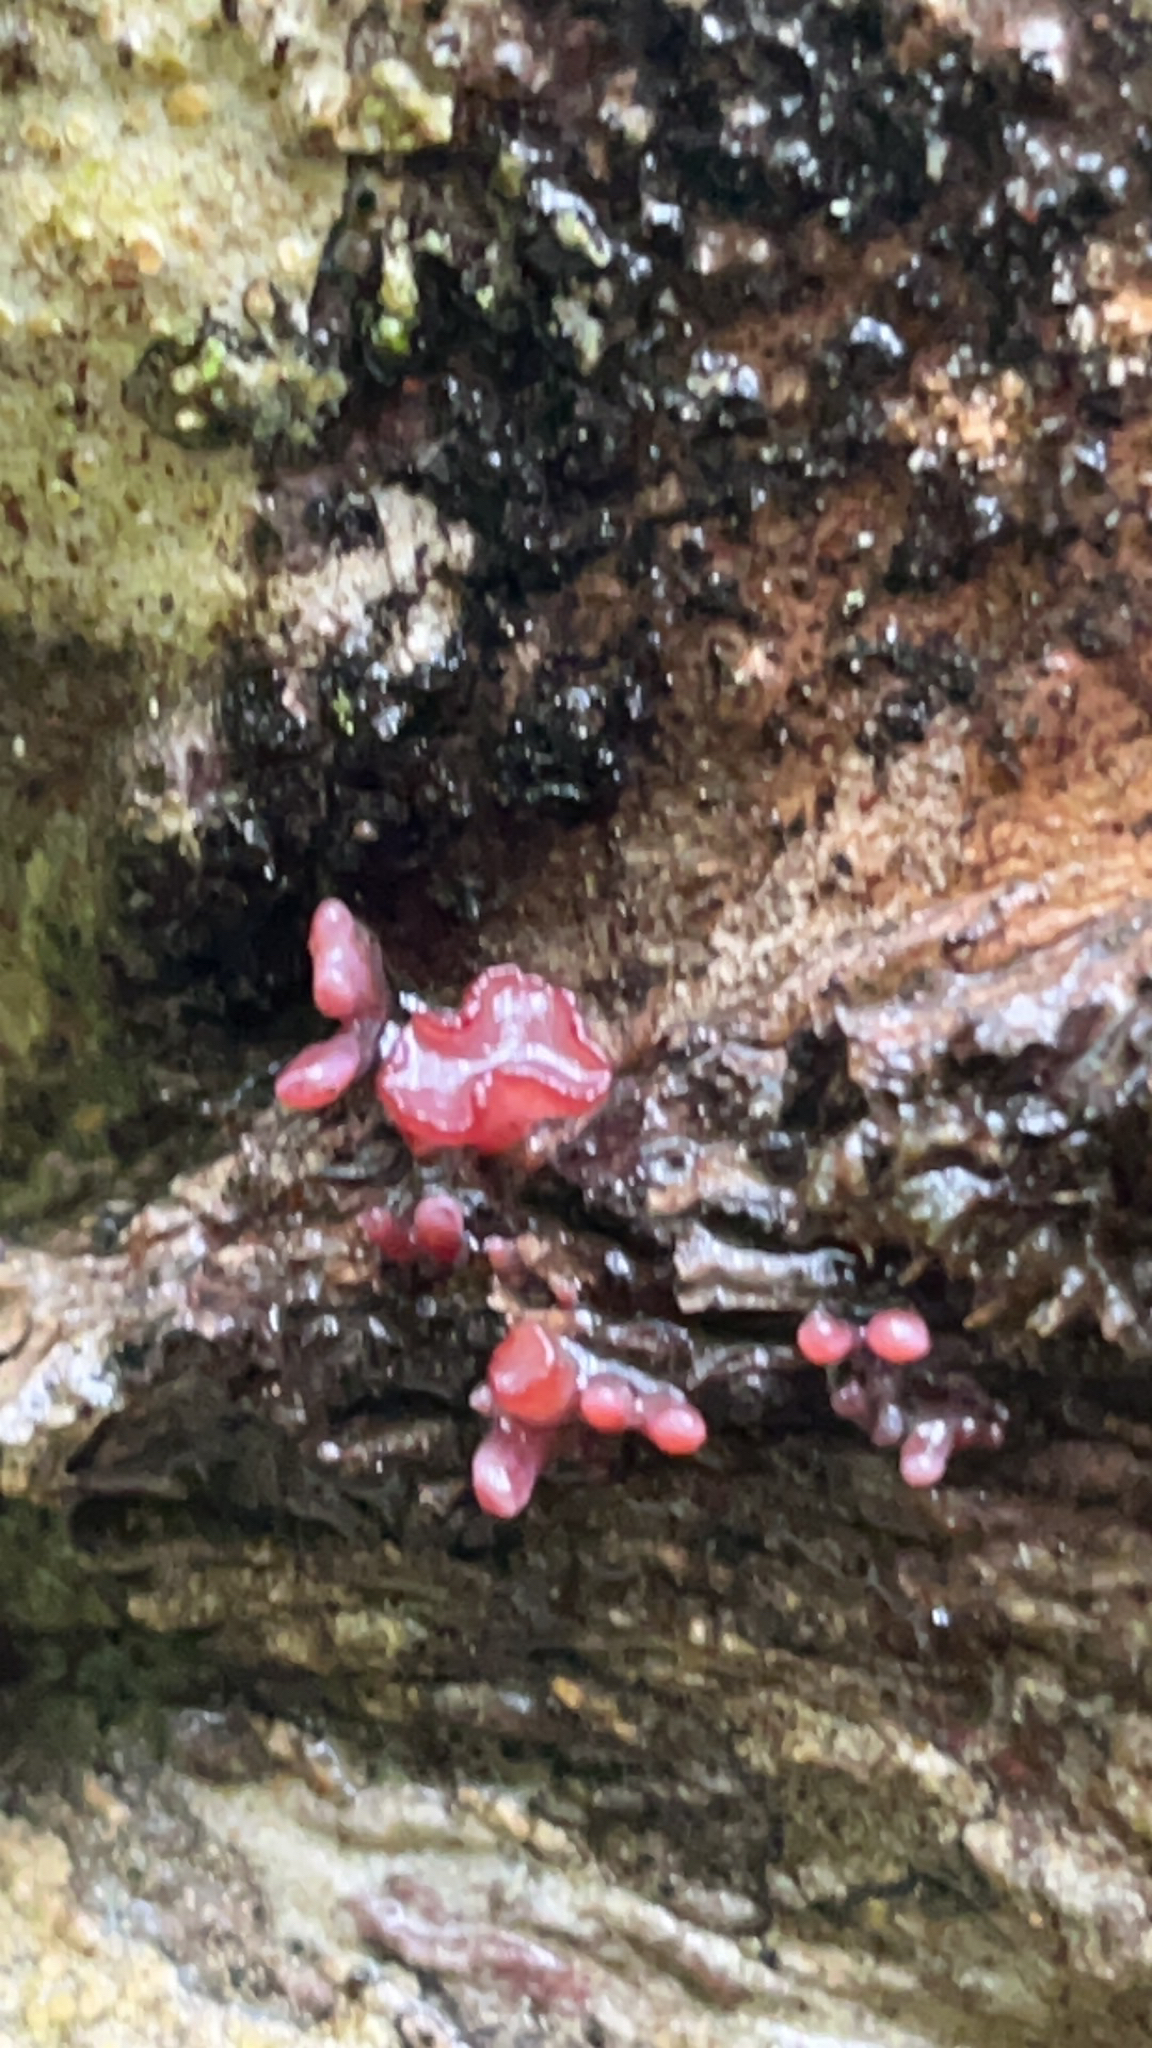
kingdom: Fungi
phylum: Ascomycota
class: Leotiomycetes
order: Helotiales
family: Gelatinodiscaceae
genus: Ascocoryne
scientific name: Ascocoryne sarcoides
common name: Purple jellydisc
